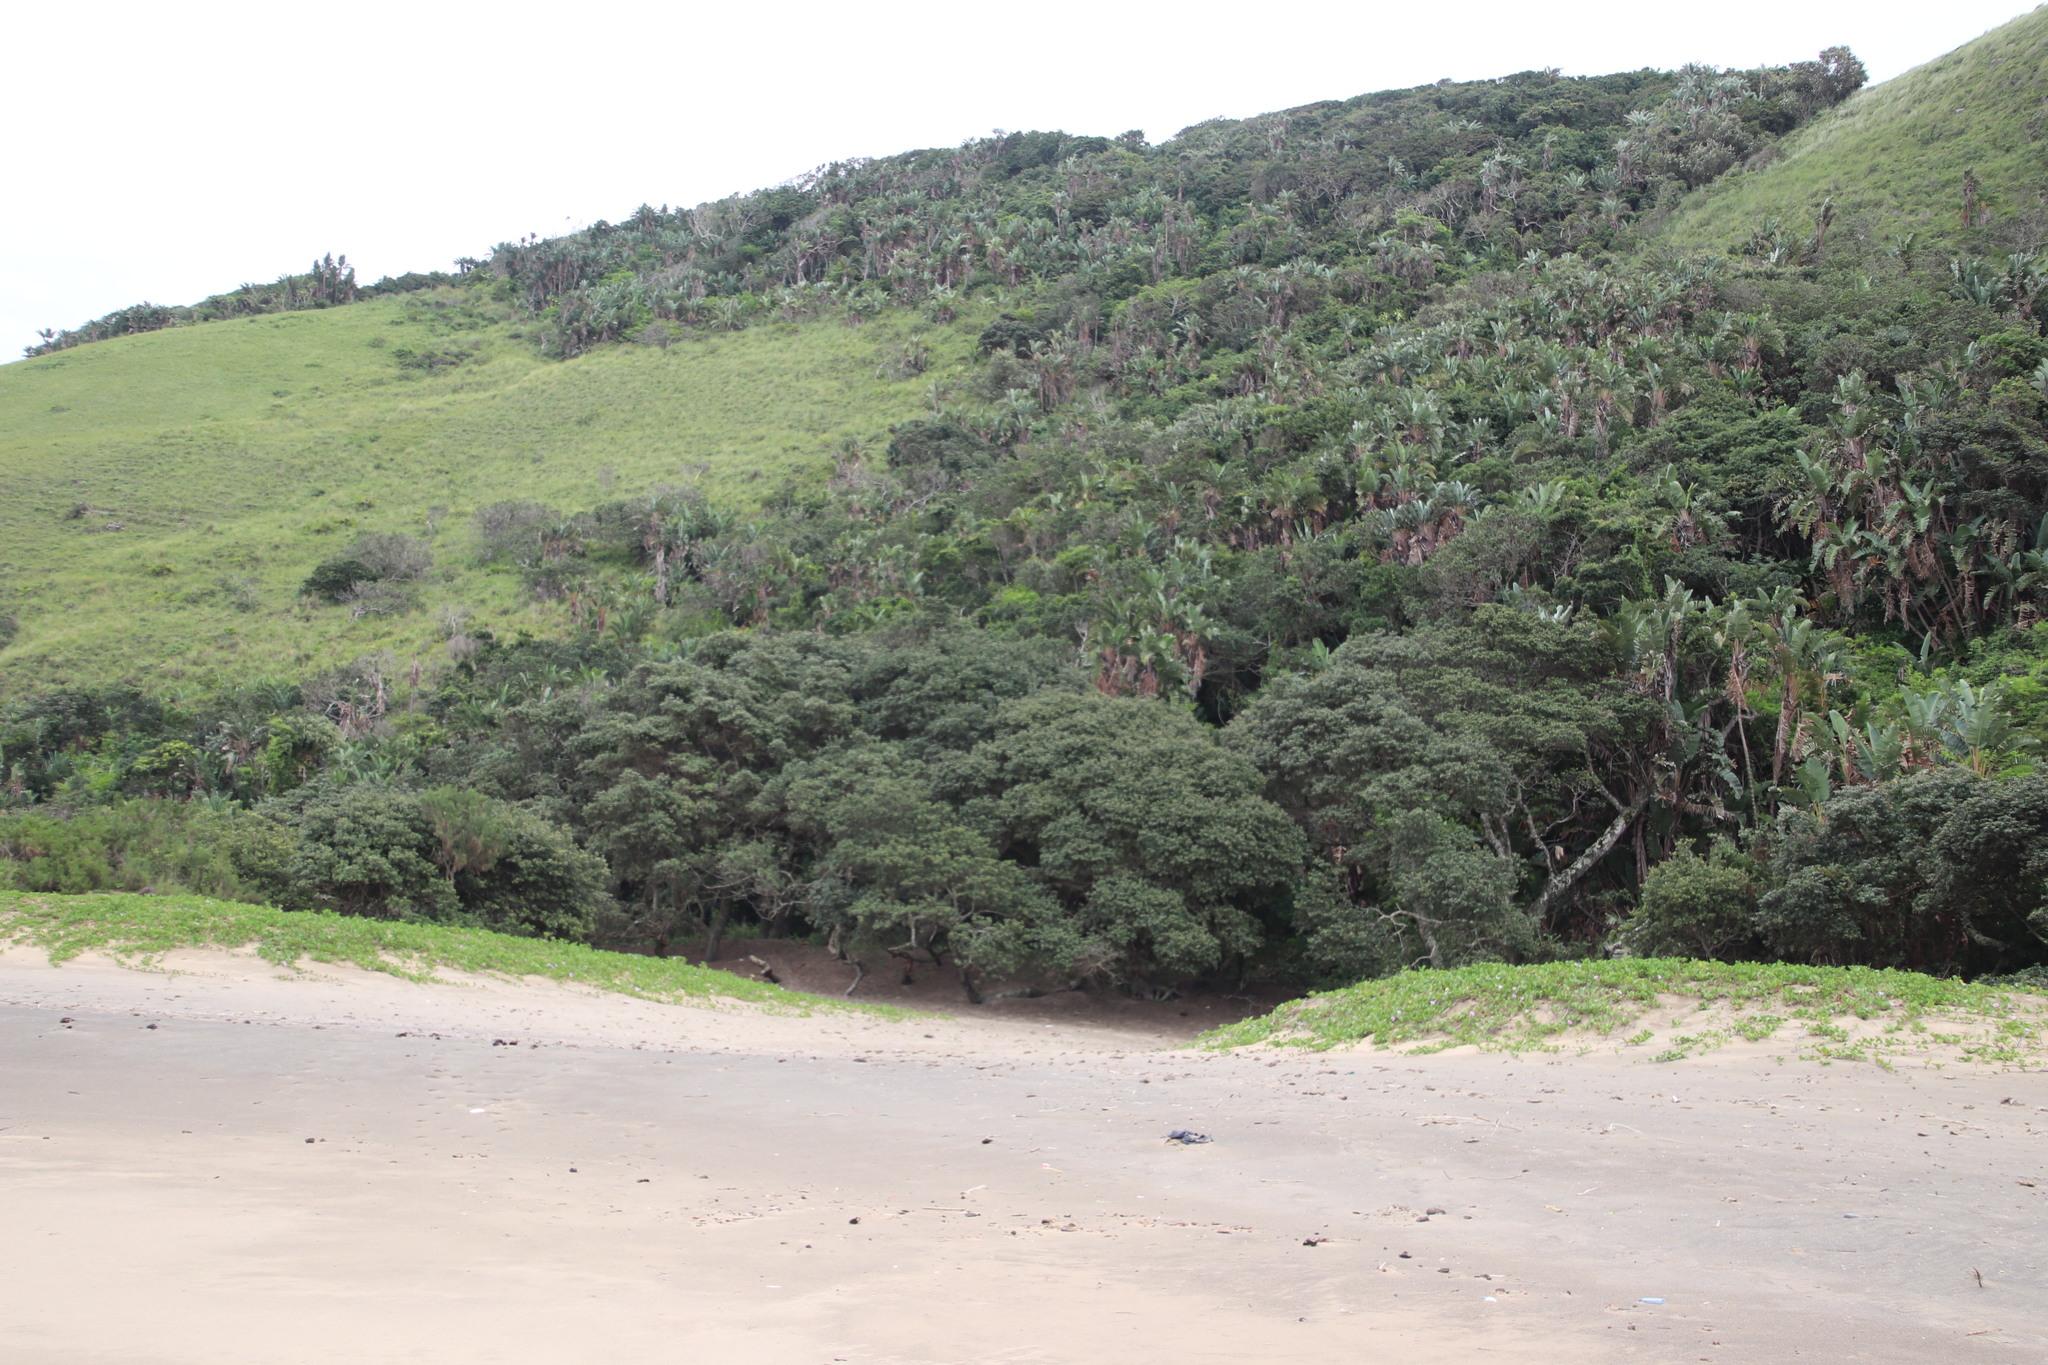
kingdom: Plantae
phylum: Tracheophyta
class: Liliopsida
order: Zingiberales
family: Strelitziaceae
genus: Strelitzia
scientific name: Strelitzia nicolai
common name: Bird-of-paradise tree
